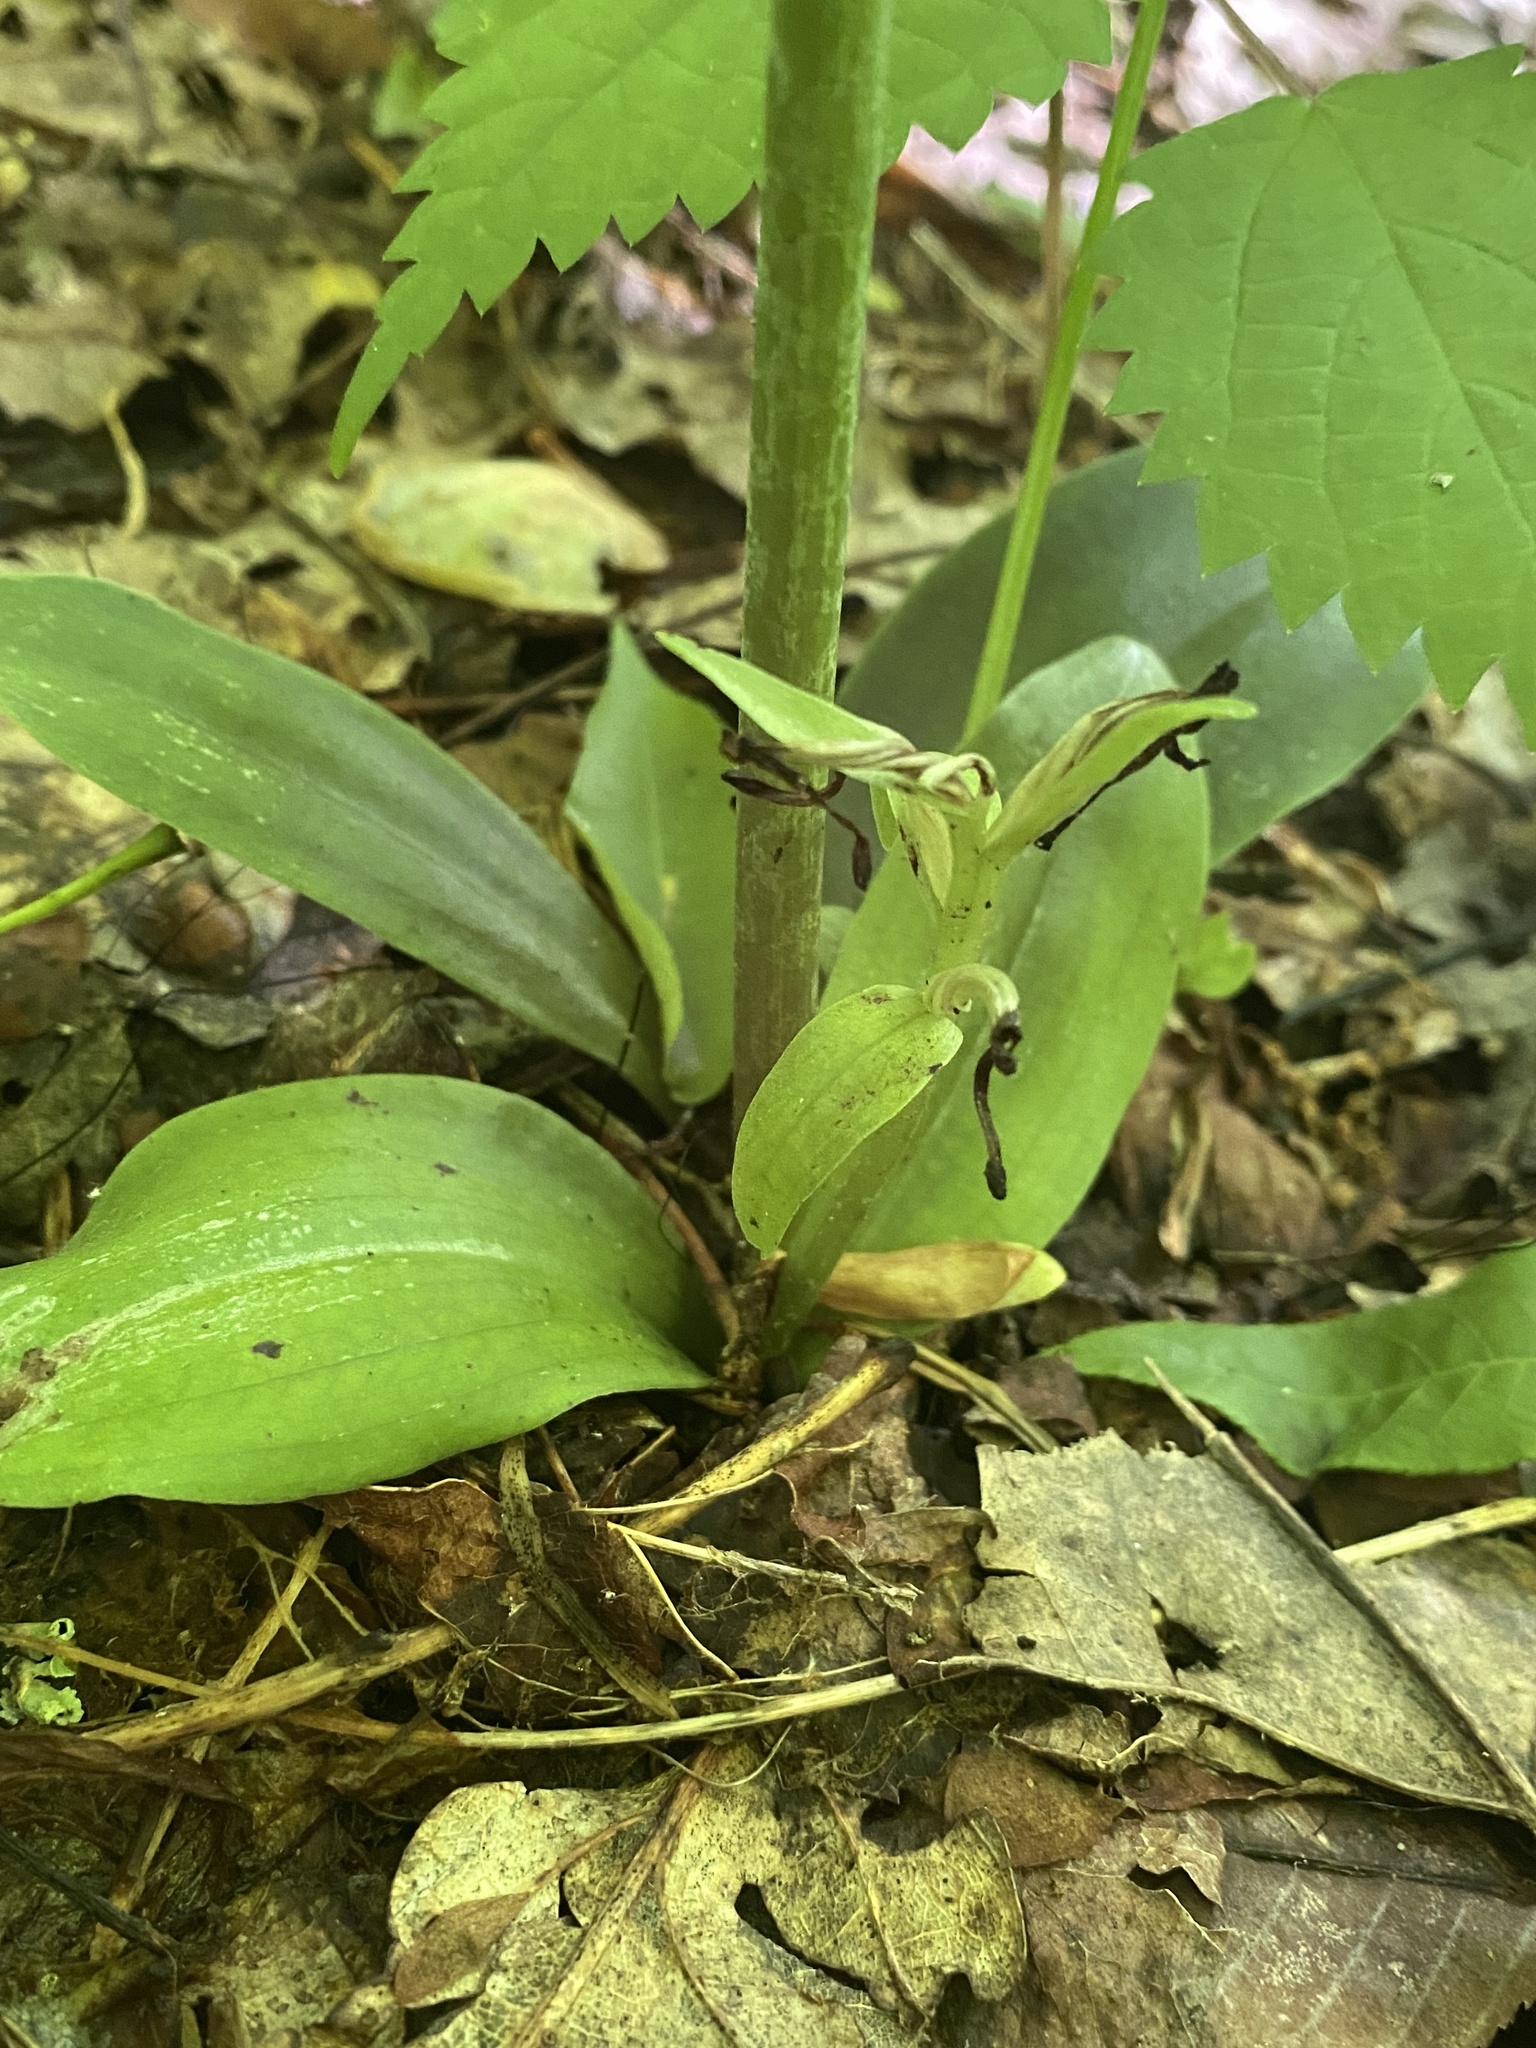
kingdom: Plantae
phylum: Tracheophyta
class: Liliopsida
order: Asparagales
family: Orchidaceae
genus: Galearis
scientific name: Galearis spectabilis
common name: Purple-hooded orchis
